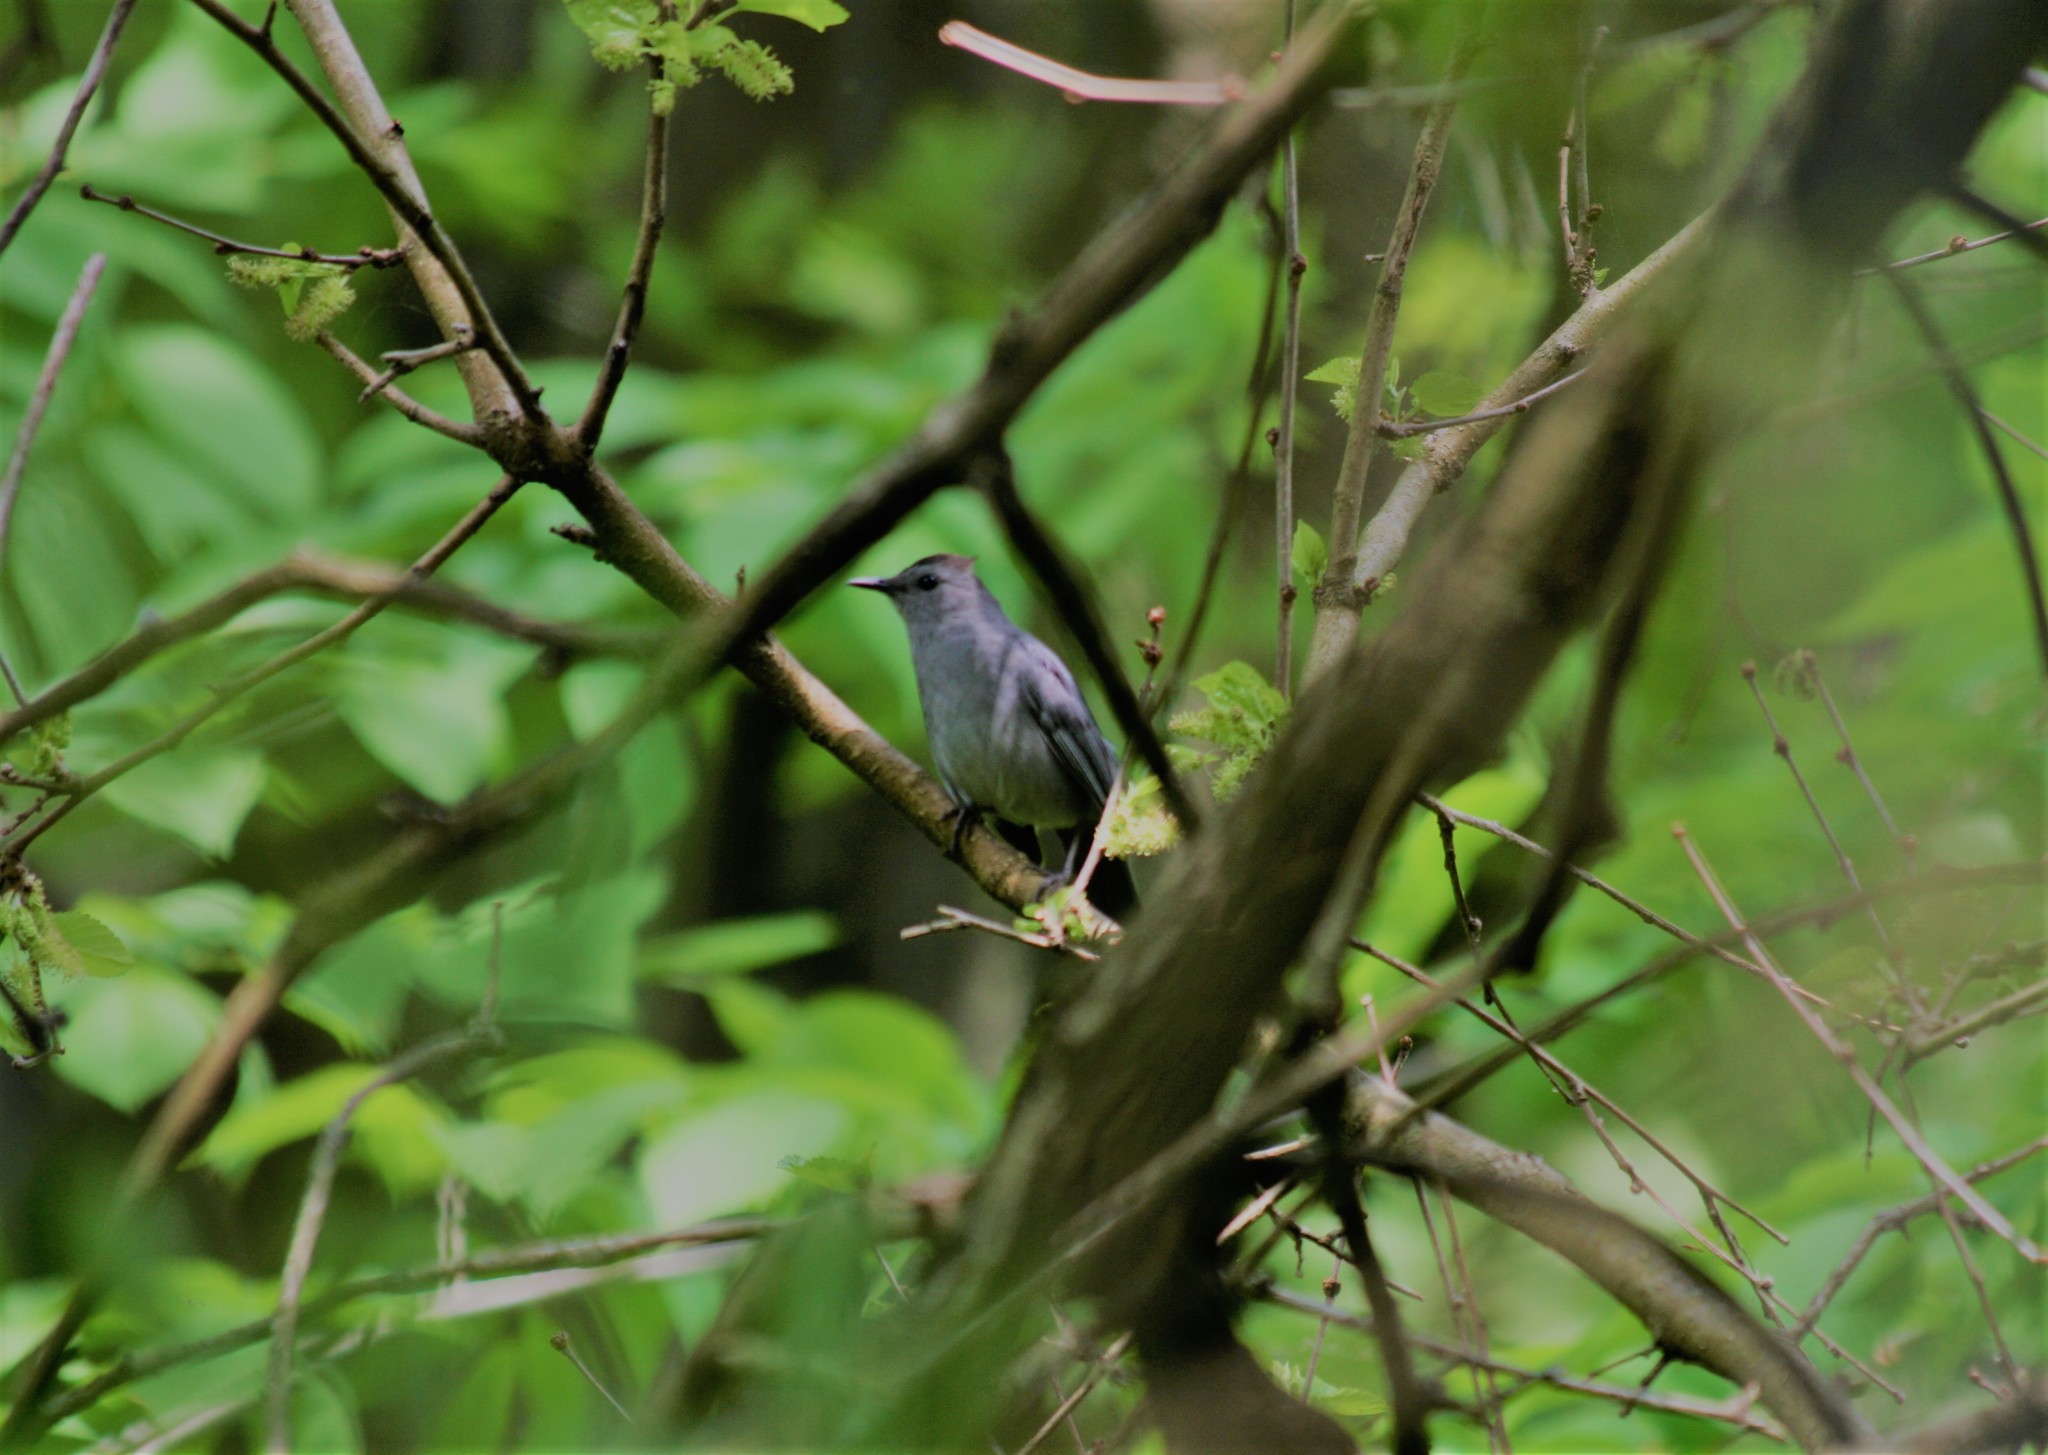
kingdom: Animalia
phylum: Chordata
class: Aves
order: Passeriformes
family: Mimidae
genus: Dumetella
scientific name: Dumetella carolinensis
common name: Gray catbird
